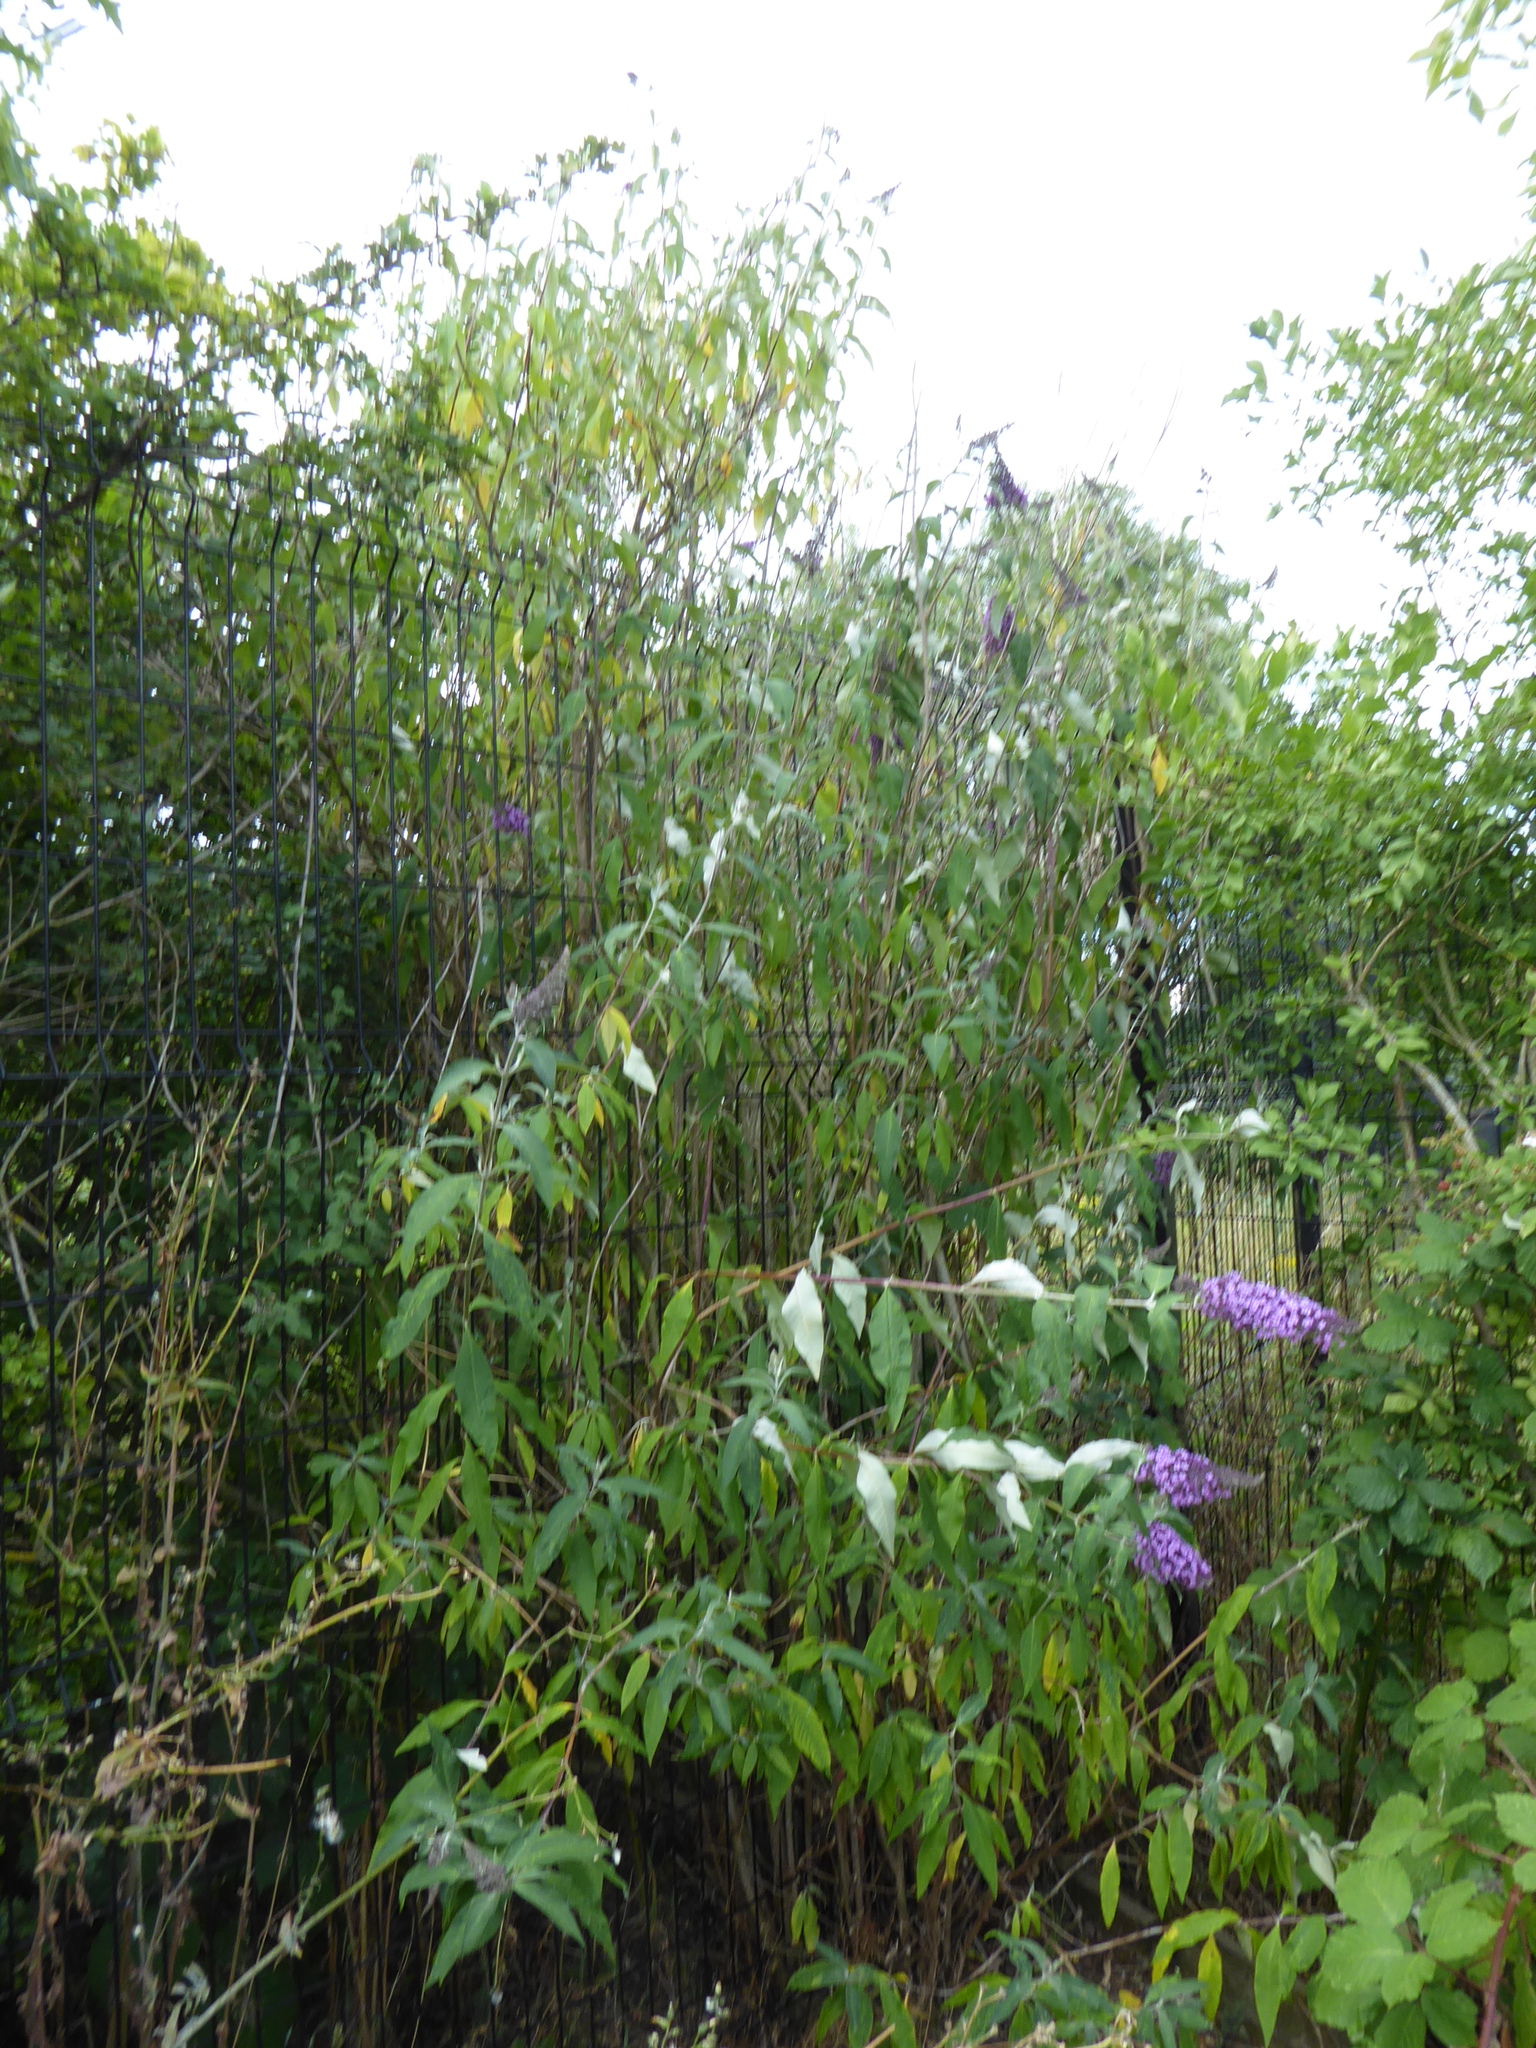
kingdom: Plantae
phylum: Tracheophyta
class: Magnoliopsida
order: Lamiales
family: Scrophulariaceae
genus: Buddleja
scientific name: Buddleja davidii
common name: Butterfly-bush
